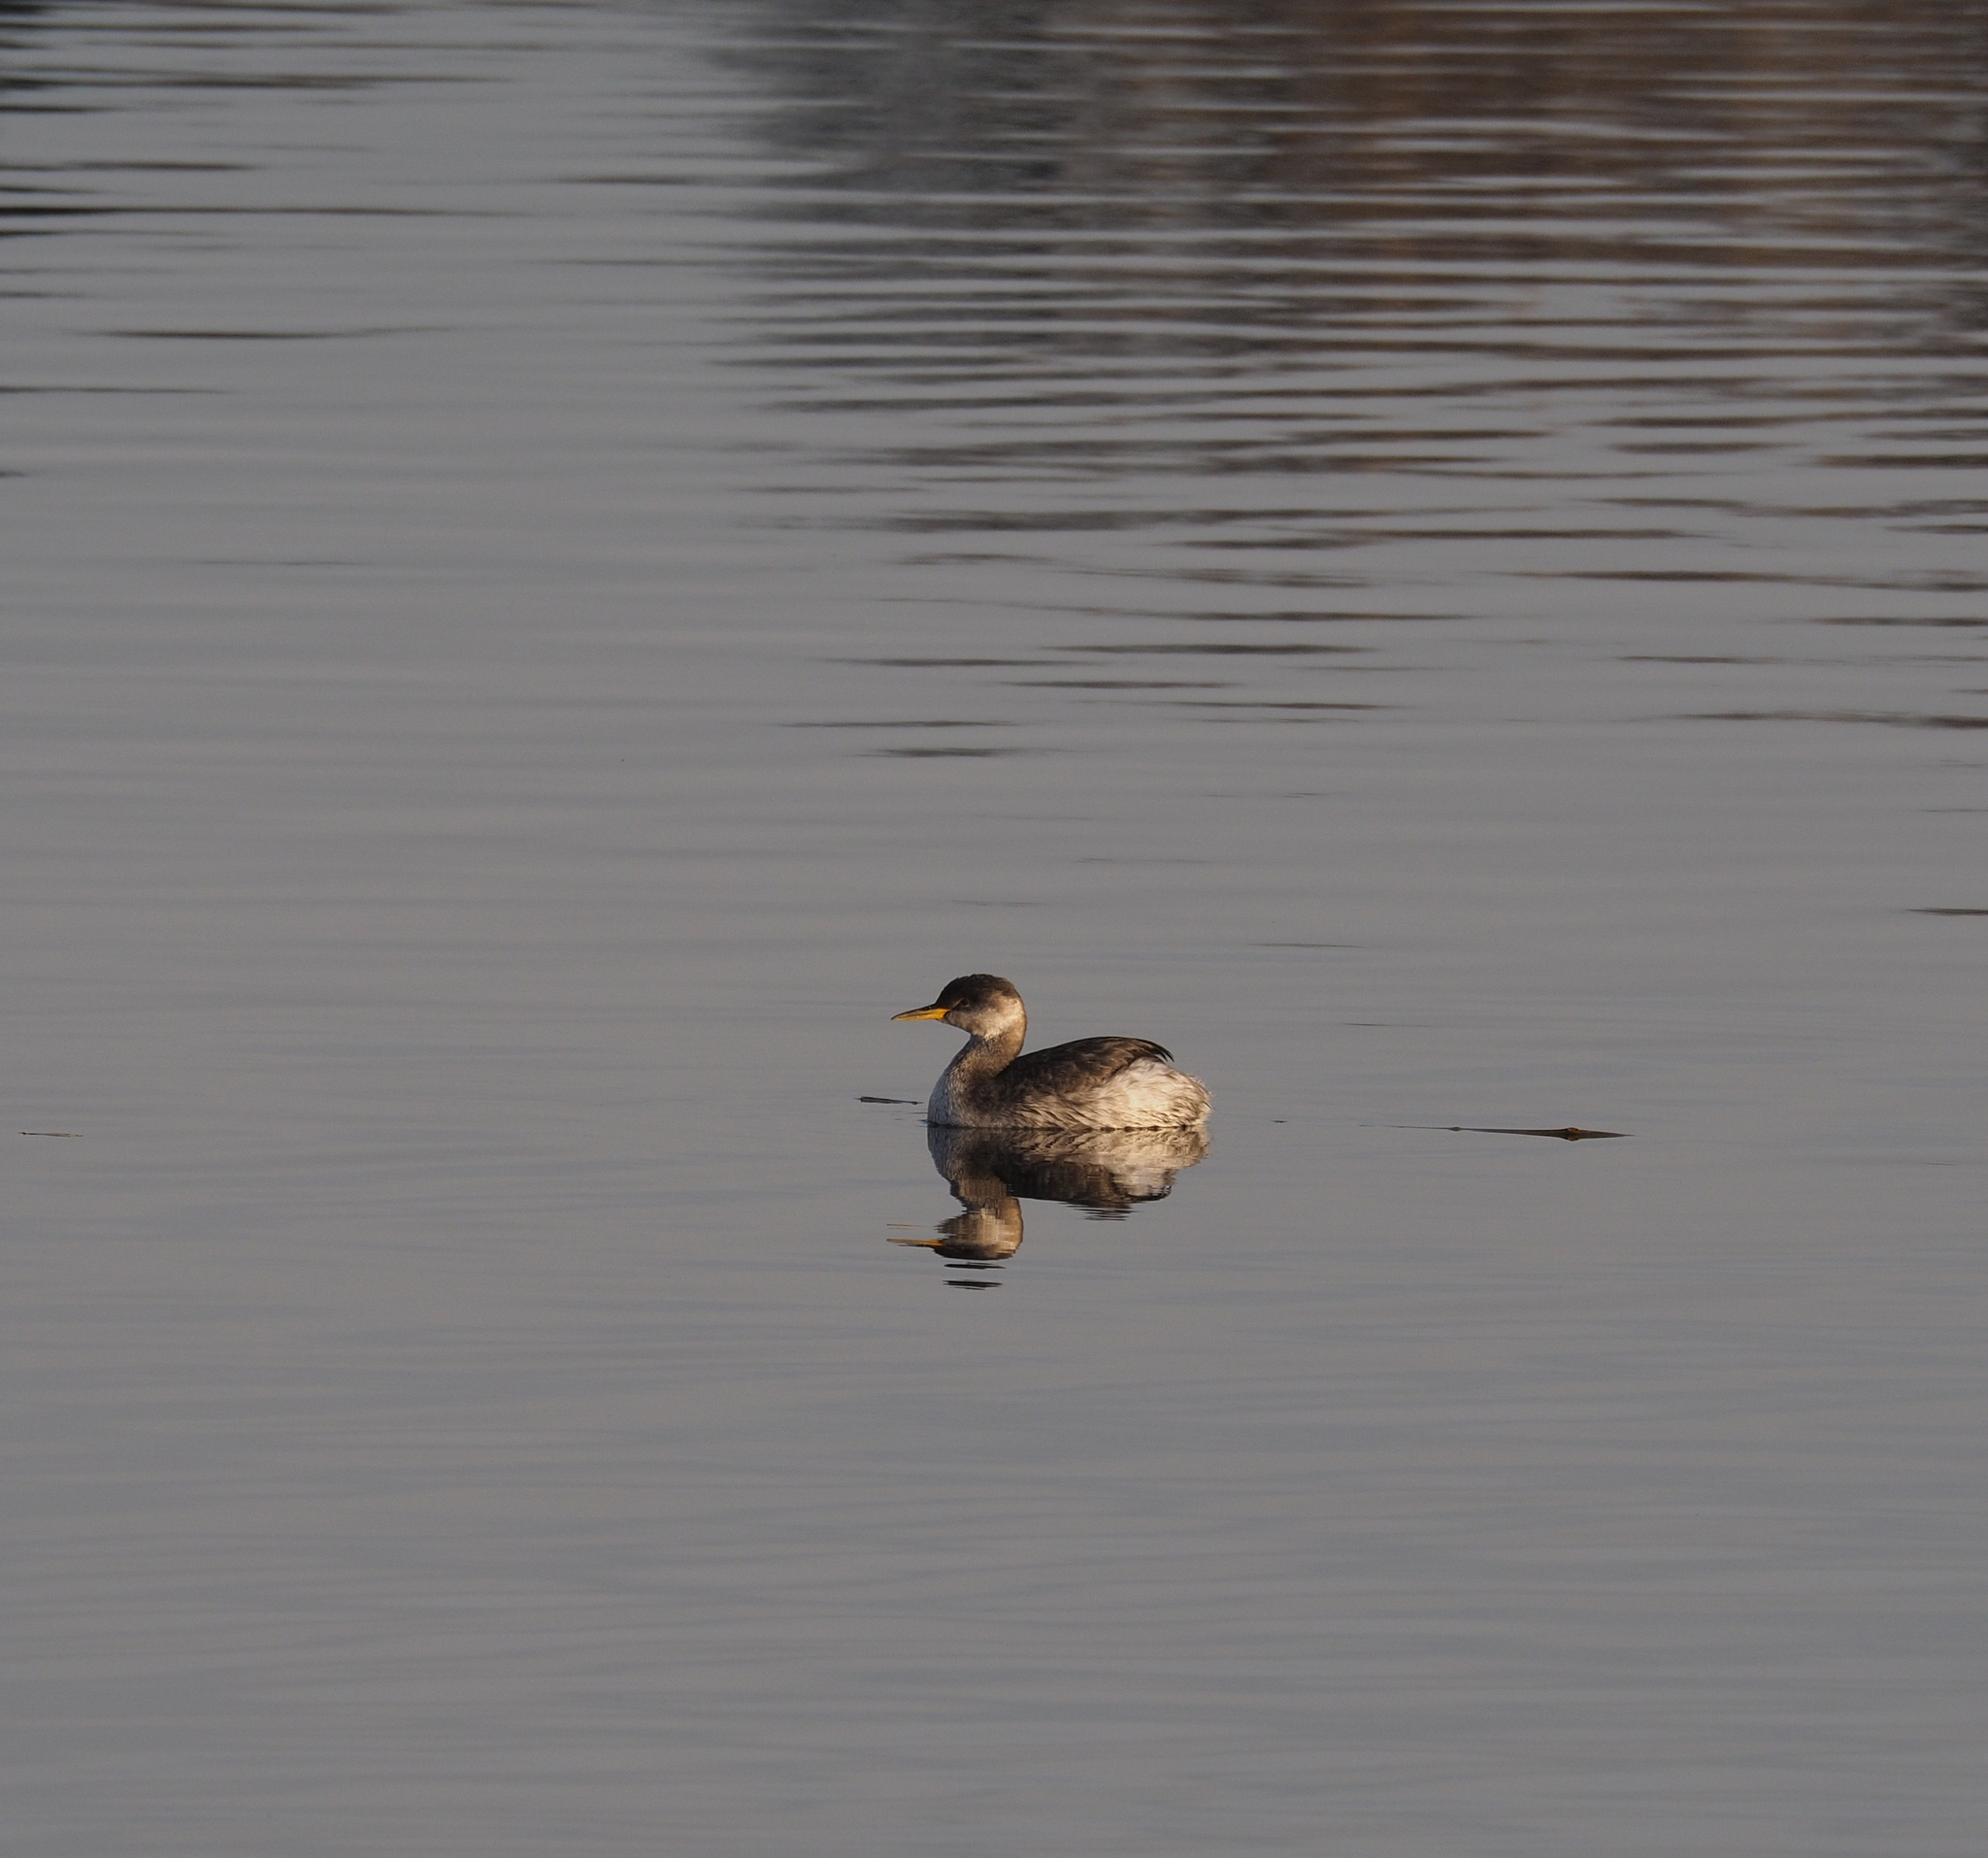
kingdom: Animalia
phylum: Chordata
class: Aves
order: Podicipediformes
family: Podicipedidae
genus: Podiceps
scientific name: Podiceps grisegena
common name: Red-necked grebe
